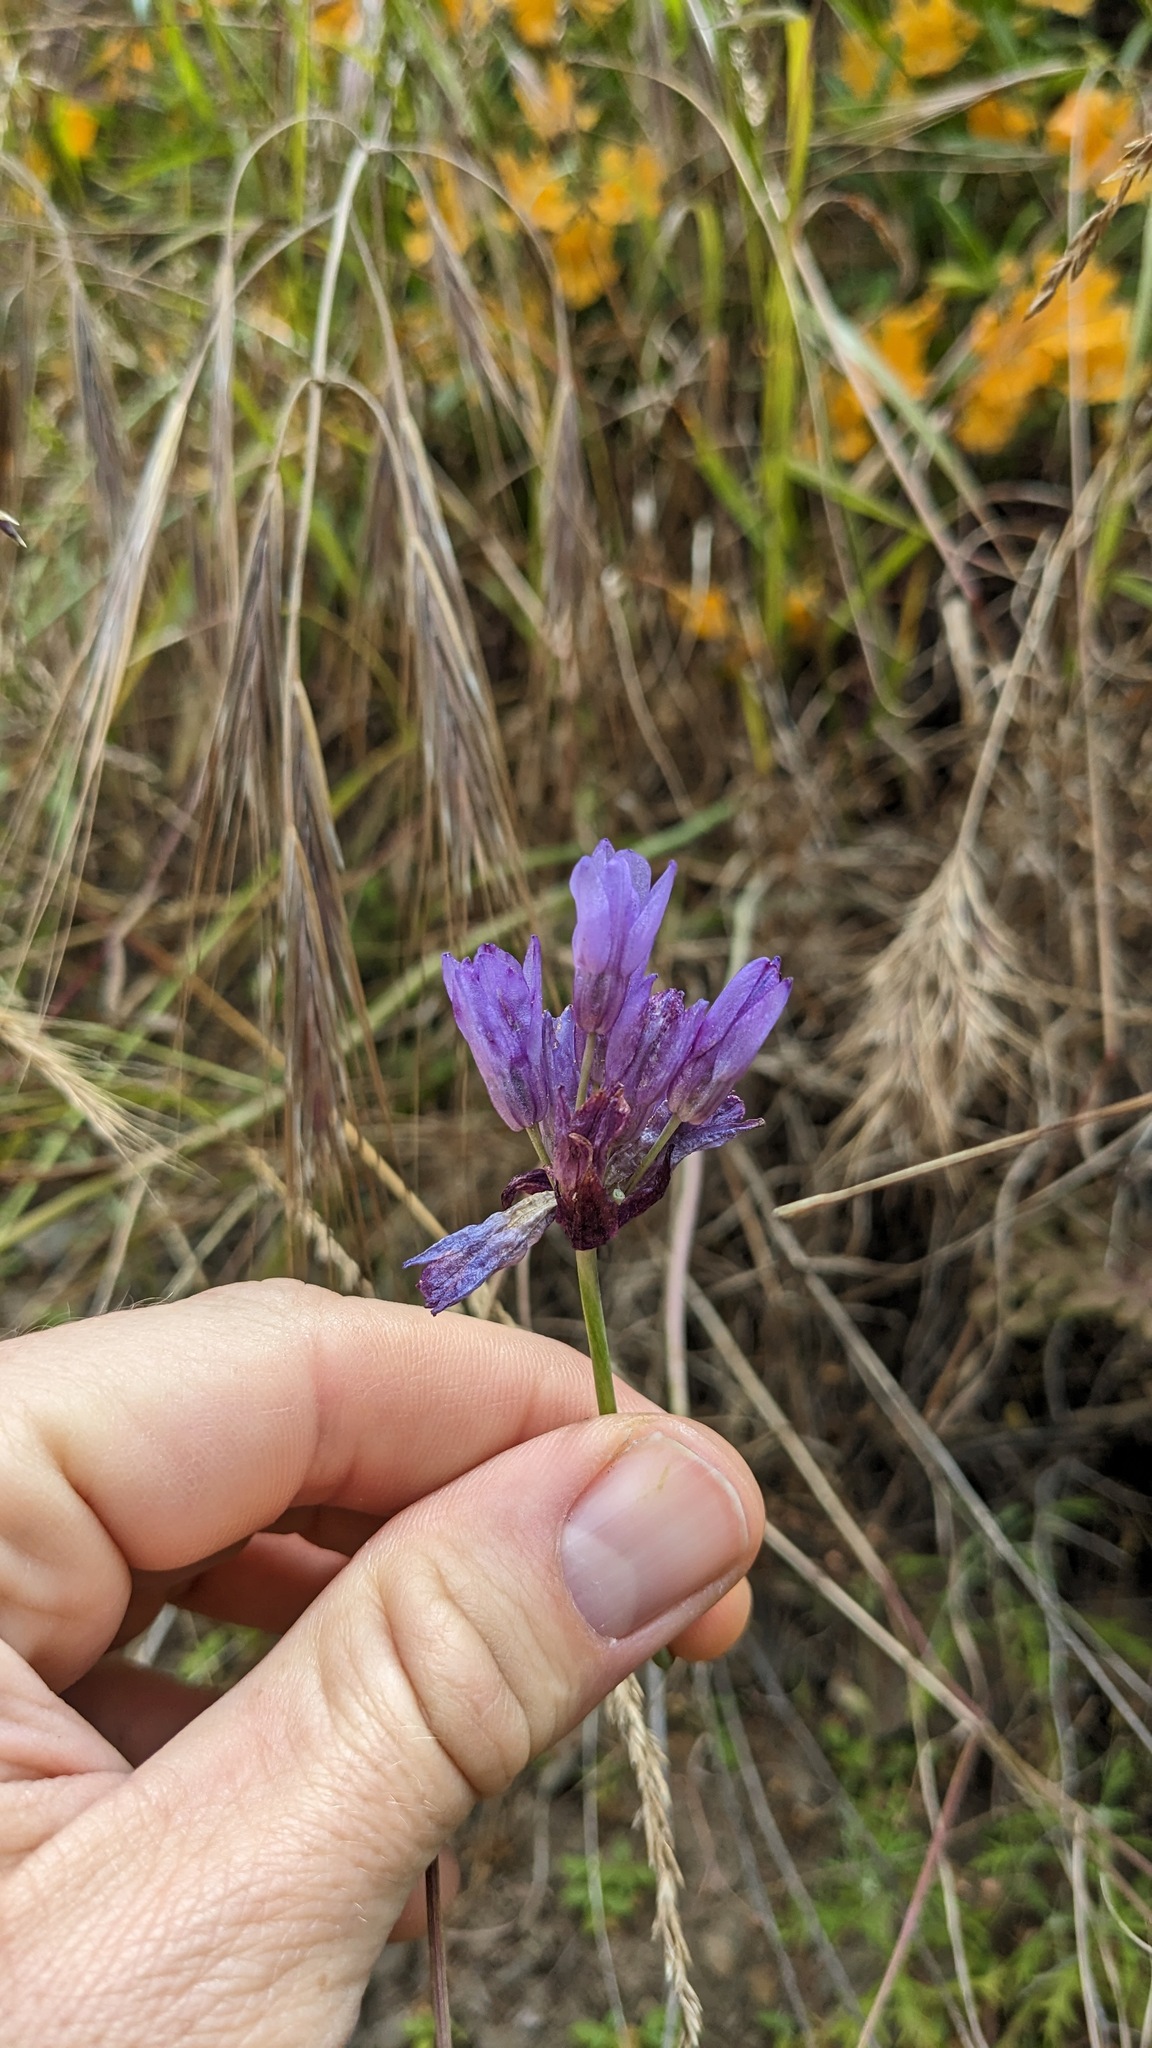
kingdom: Plantae
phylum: Tracheophyta
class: Liliopsida
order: Asparagales
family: Asparagaceae
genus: Dipterostemon
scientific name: Dipterostemon capitatus
